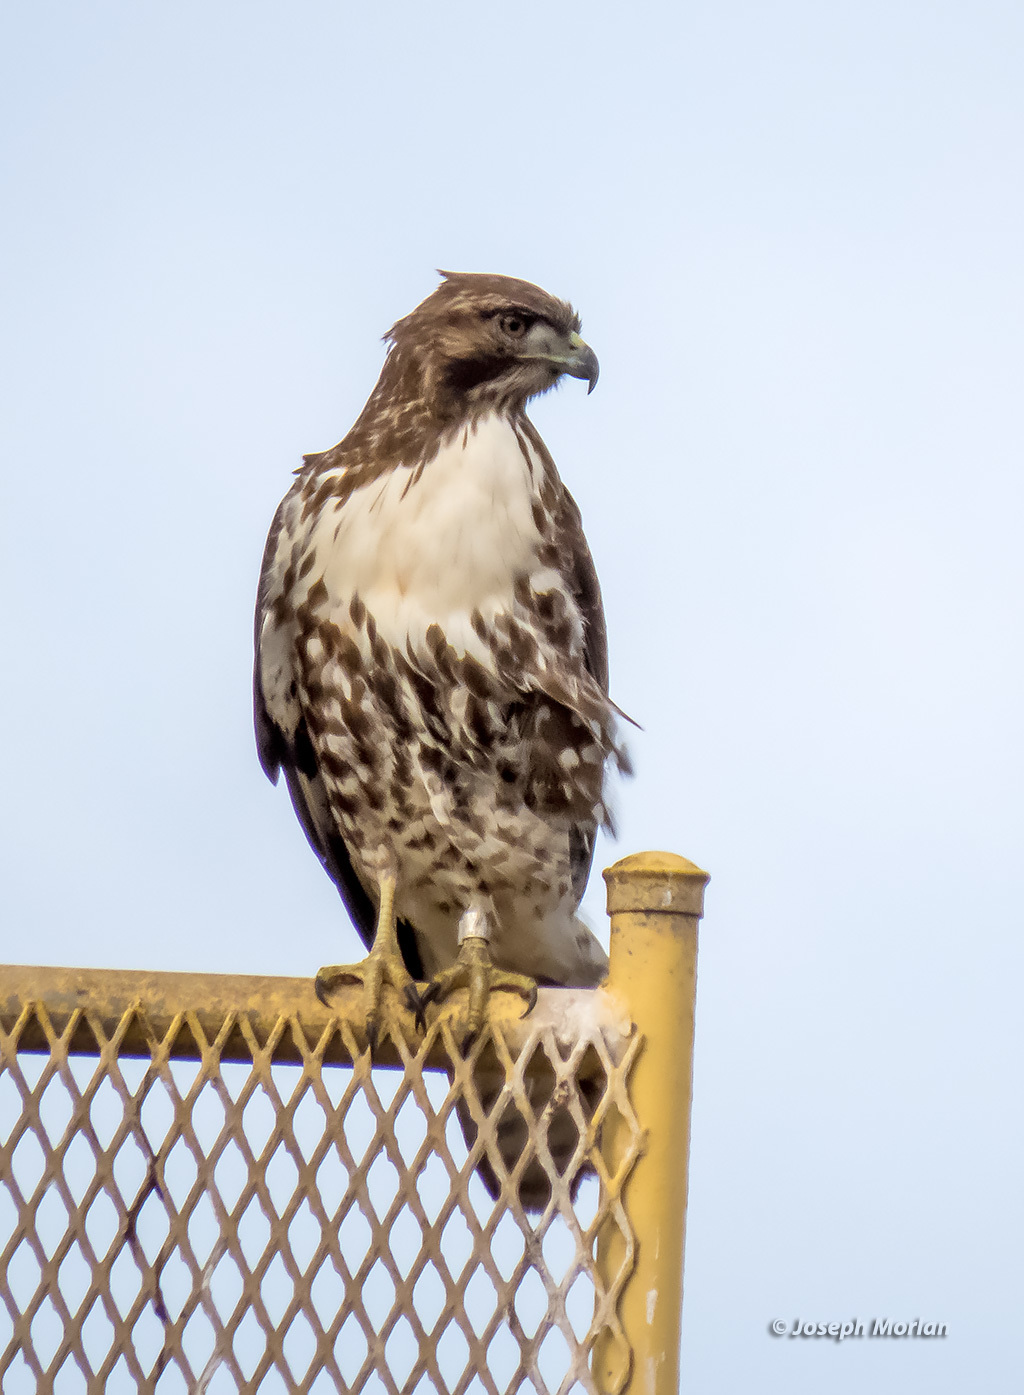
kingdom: Animalia
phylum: Chordata
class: Aves
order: Accipitriformes
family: Accipitridae
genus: Buteo
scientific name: Buteo jamaicensis
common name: Red-tailed hawk
